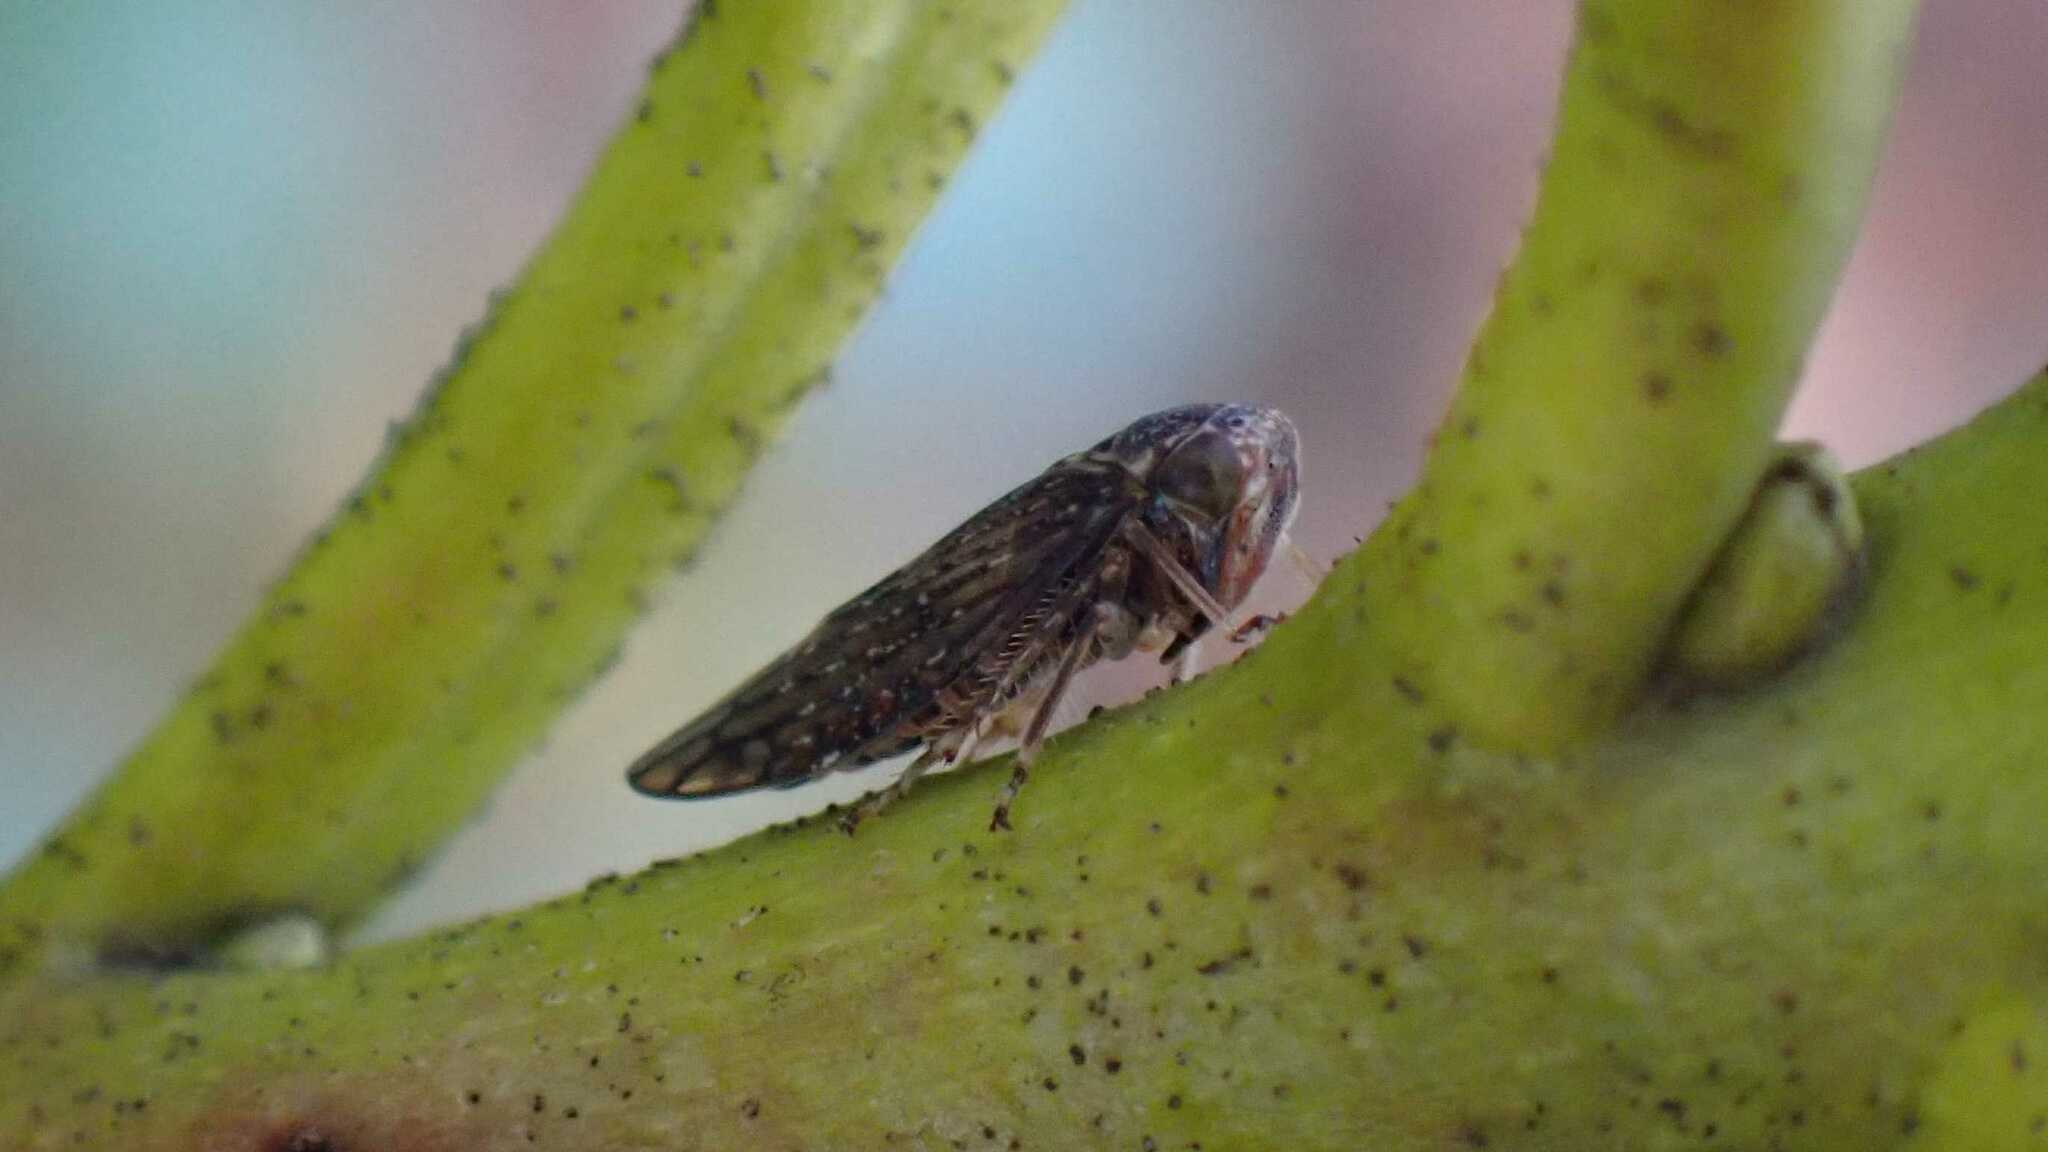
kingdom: Animalia
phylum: Arthropoda
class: Insecta
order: Hemiptera
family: Cicadellidae
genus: Acericerus
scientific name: Acericerus ribauti
